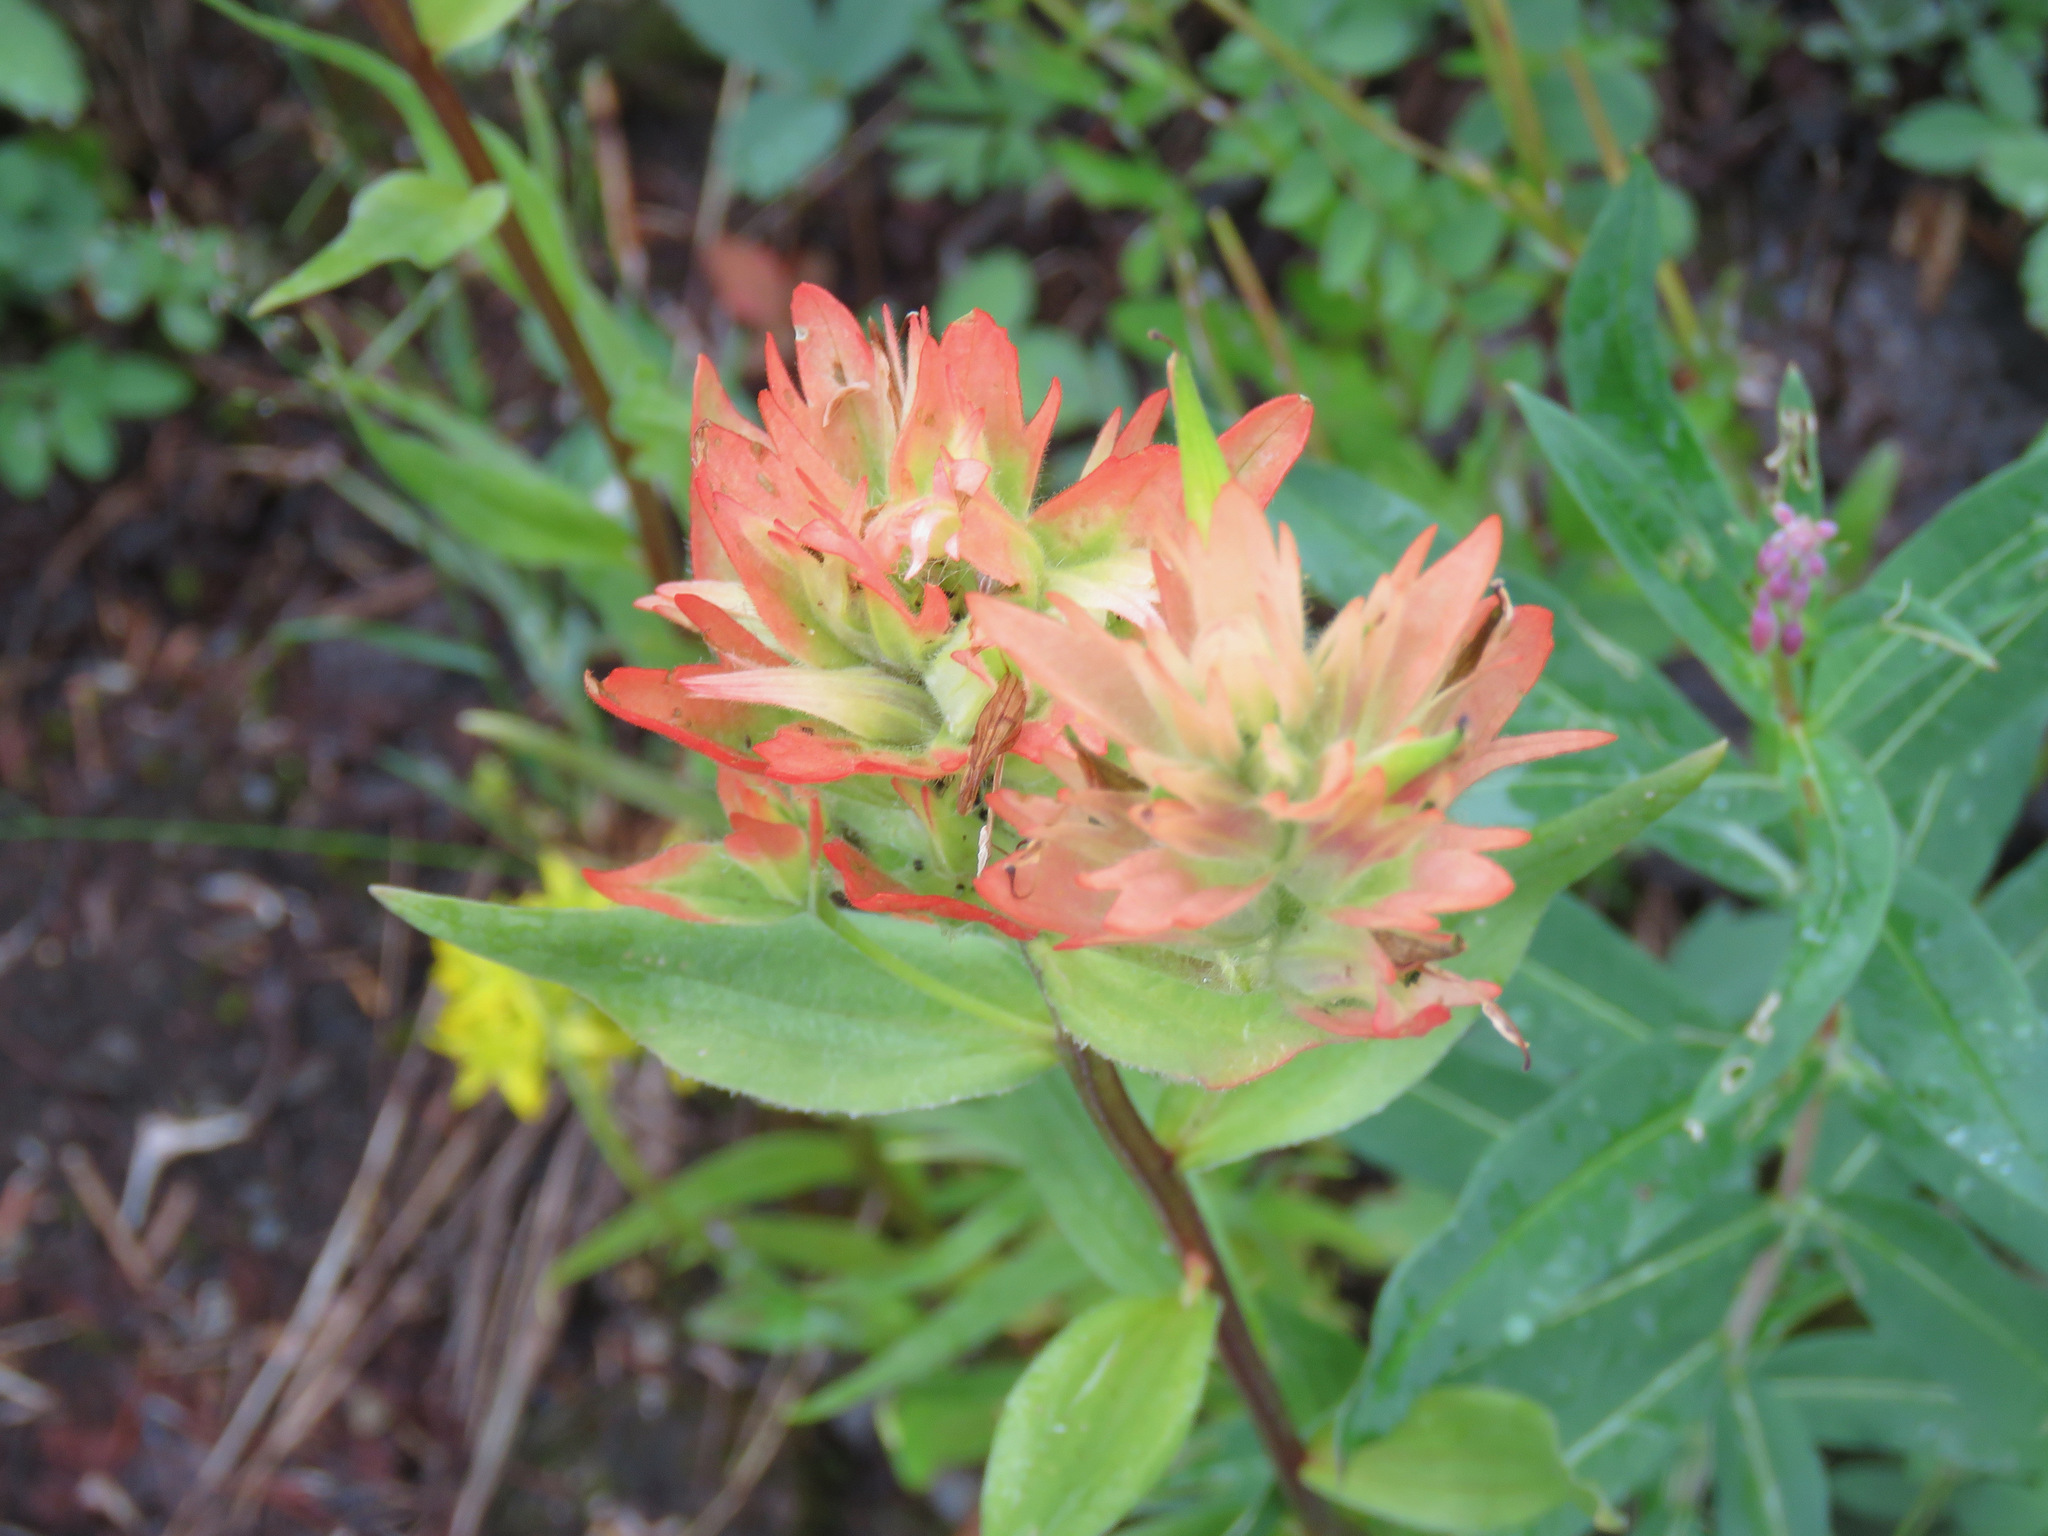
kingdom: Plantae
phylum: Tracheophyta
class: Magnoliopsida
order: Lamiales
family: Orobanchaceae
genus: Castilleja
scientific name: Castilleja miniata
